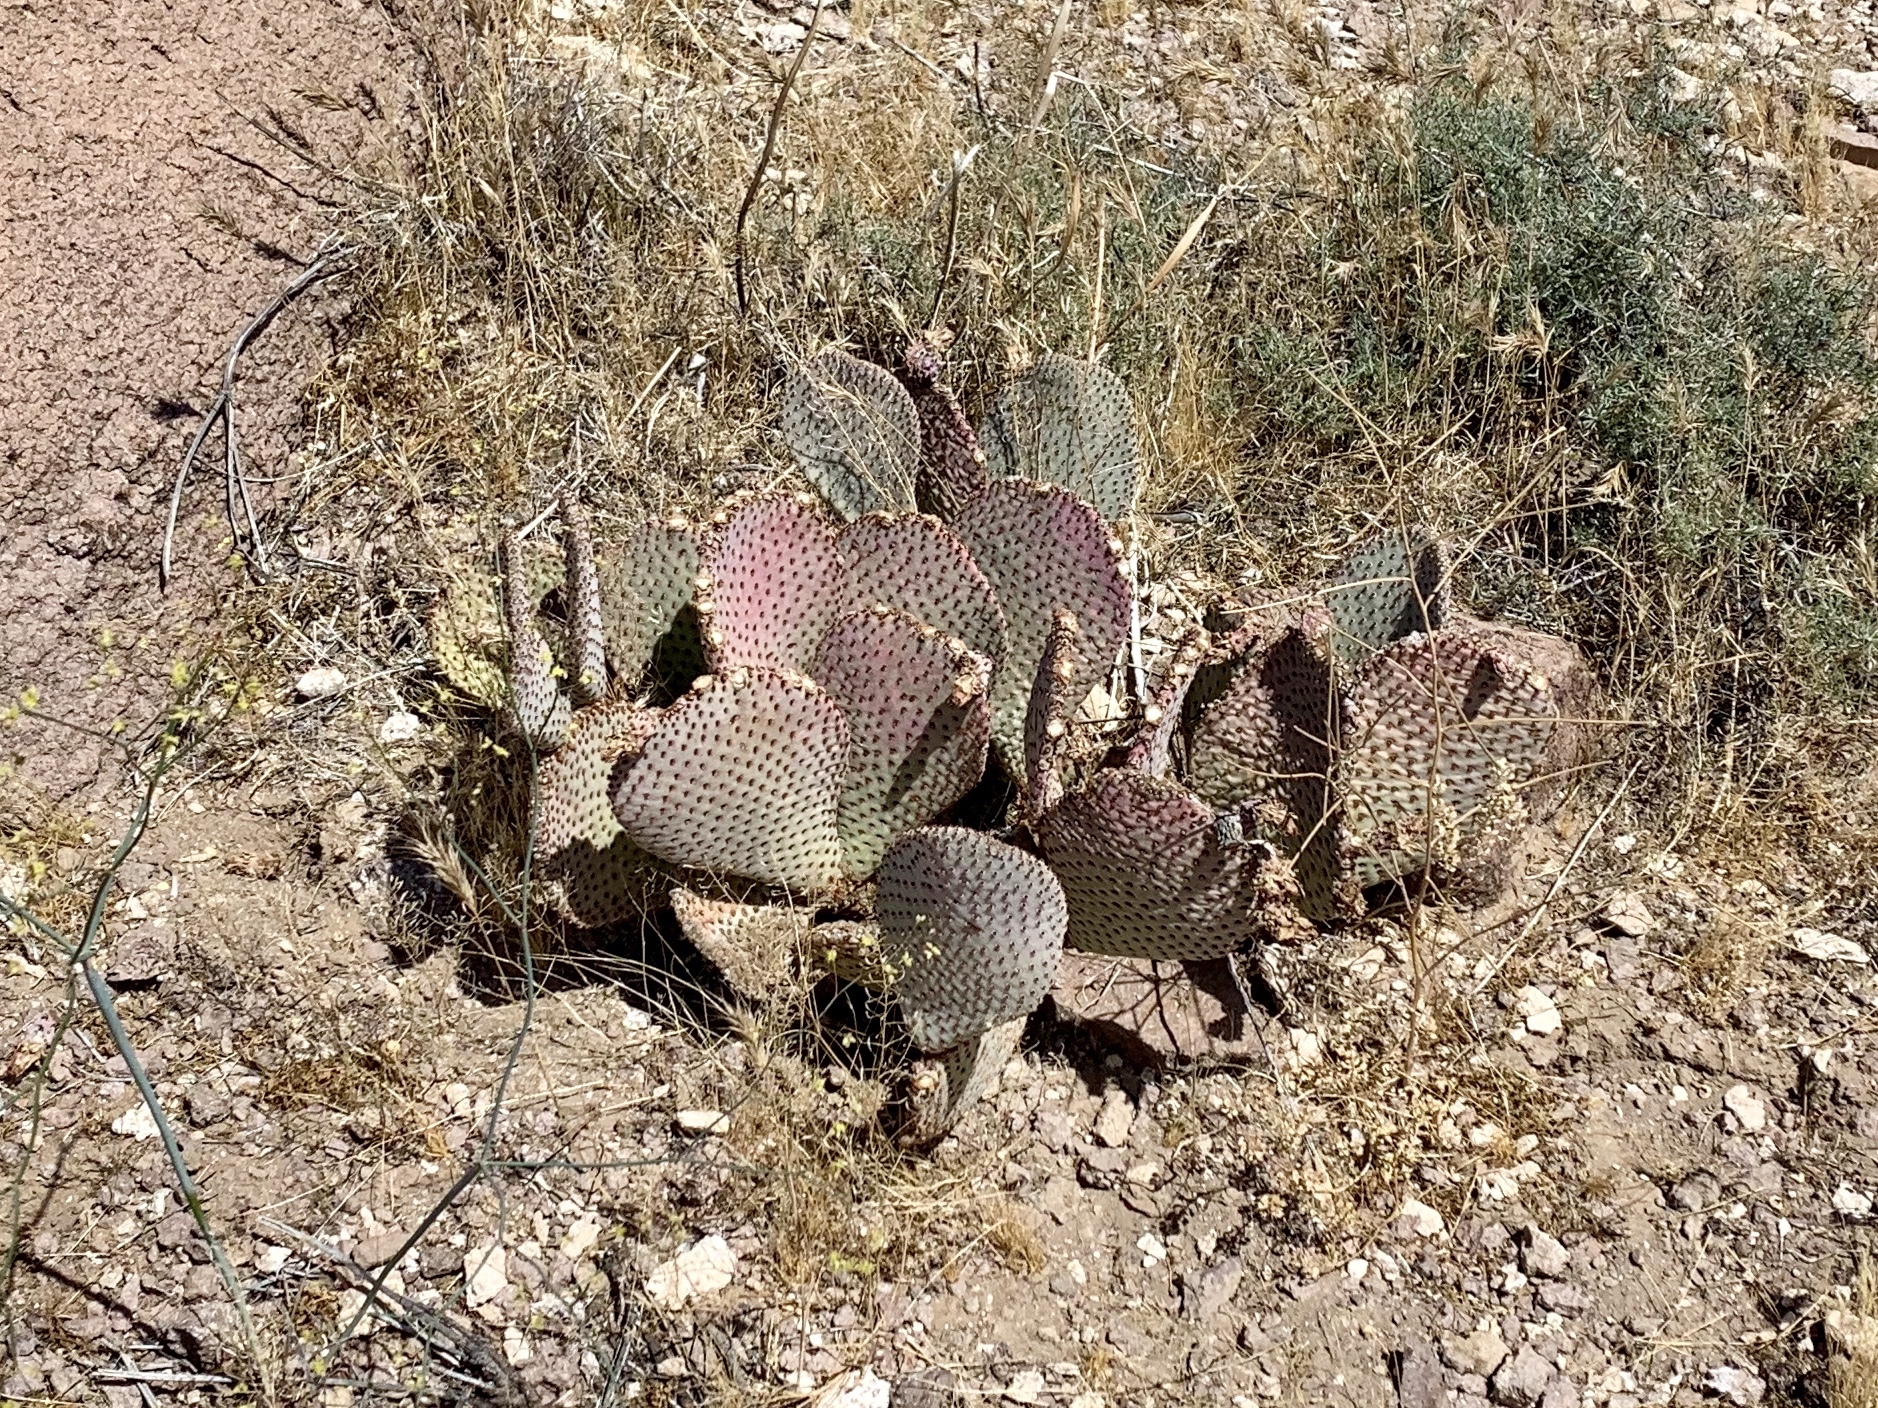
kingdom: Plantae
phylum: Tracheophyta
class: Magnoliopsida
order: Caryophyllales
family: Cactaceae
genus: Opuntia
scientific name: Opuntia basilaris
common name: Beavertail prickly-pear
